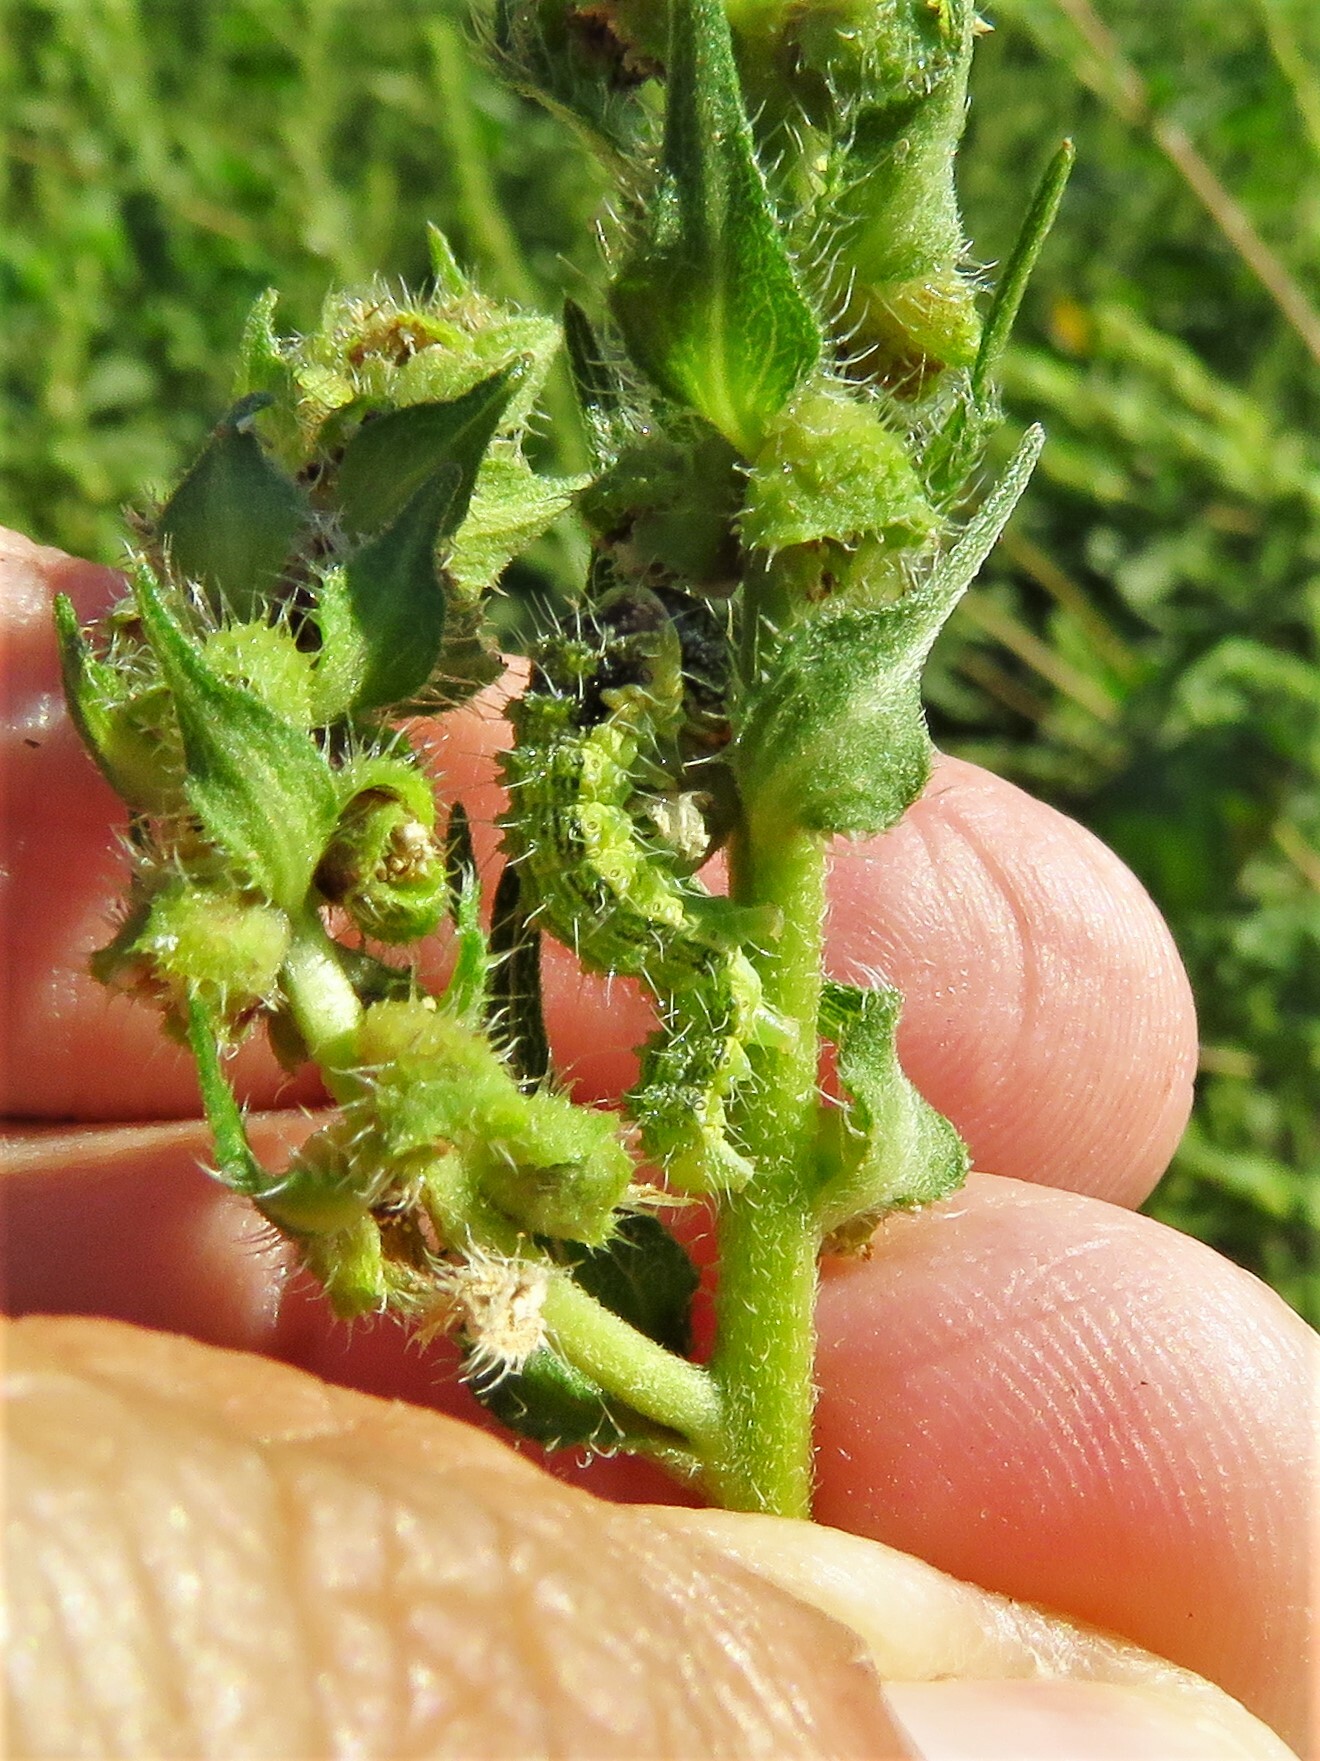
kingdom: Animalia
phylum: Arthropoda
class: Insecta
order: Lepidoptera
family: Noctuidae
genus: Schinia
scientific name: Schinia gracilenta
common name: Slender flower moth
